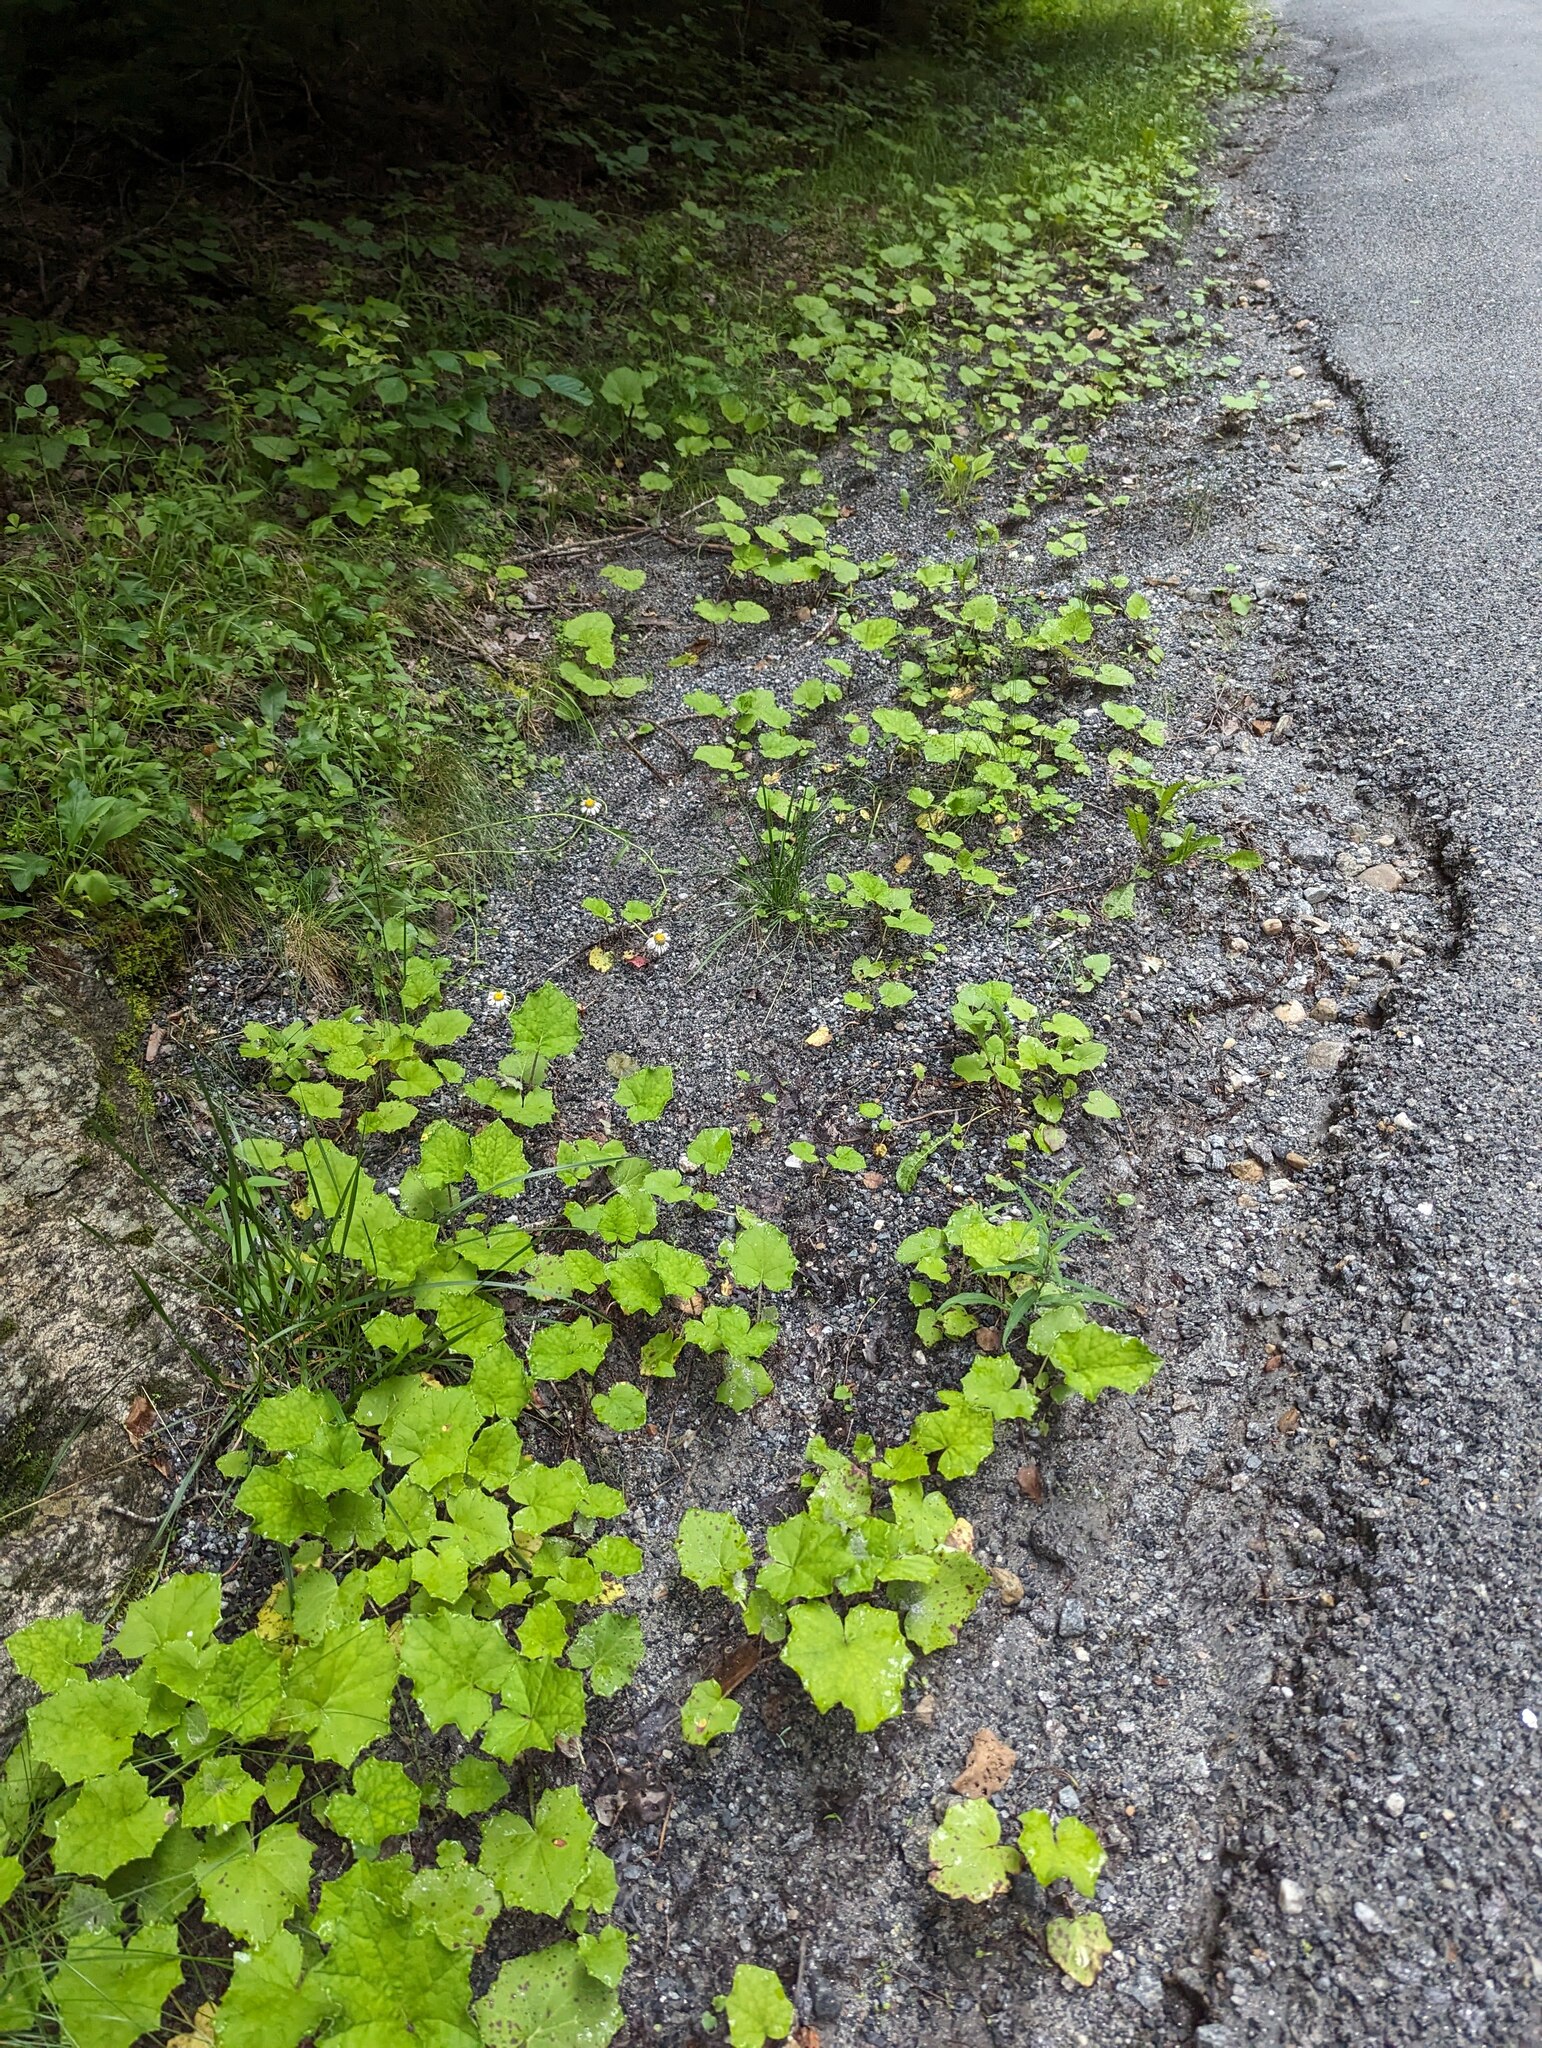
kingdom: Plantae
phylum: Tracheophyta
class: Magnoliopsida
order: Asterales
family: Asteraceae
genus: Tussilago
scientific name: Tussilago farfara
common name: Coltsfoot
